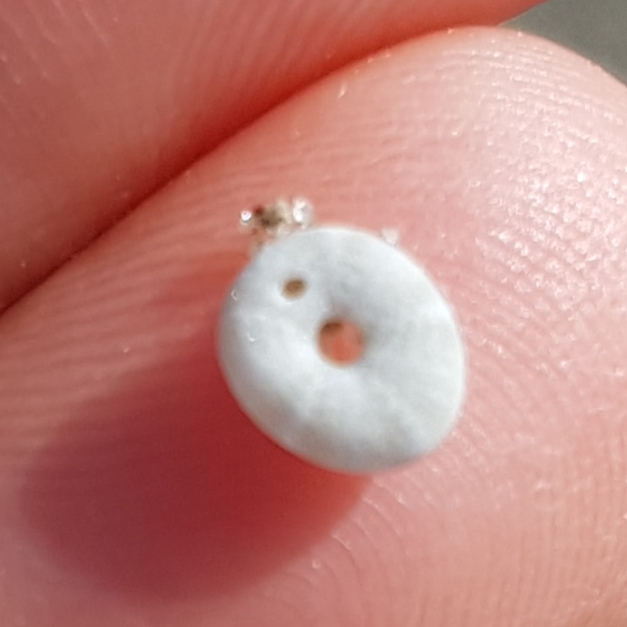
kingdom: Animalia
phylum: Echinodermata
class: Echinoidea
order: Echinolampadacea
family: Fibulariidae
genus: Echinocyamus
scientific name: Echinocyamus pusillus
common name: Broad beau of sea
